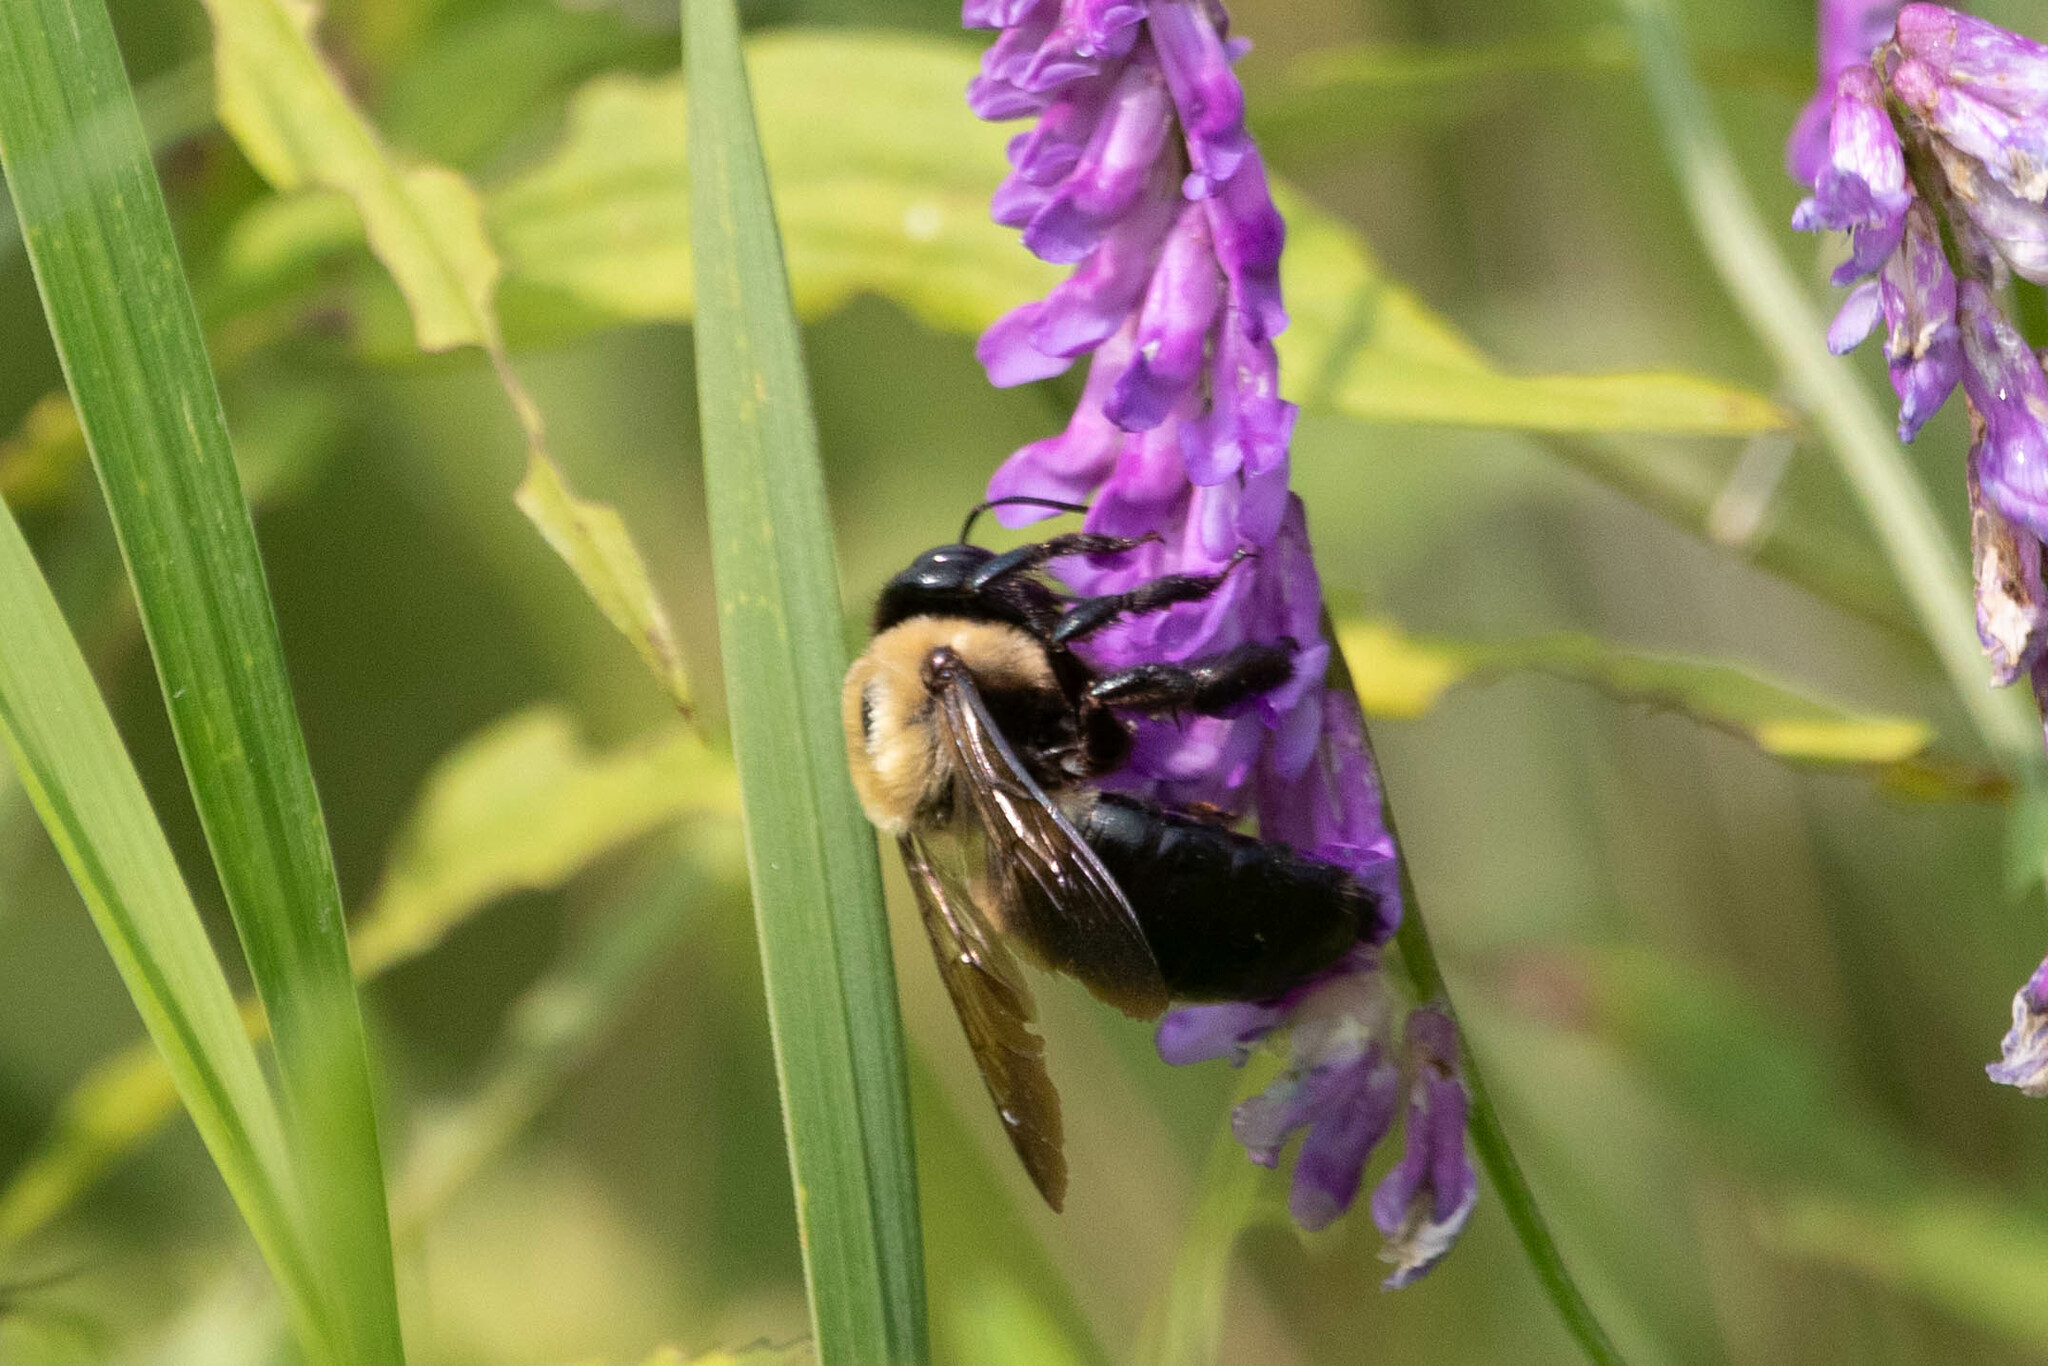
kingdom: Animalia
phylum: Arthropoda
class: Insecta
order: Hymenoptera
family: Apidae
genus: Xylocopa
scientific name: Xylocopa virginica
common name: Carpenter bee
